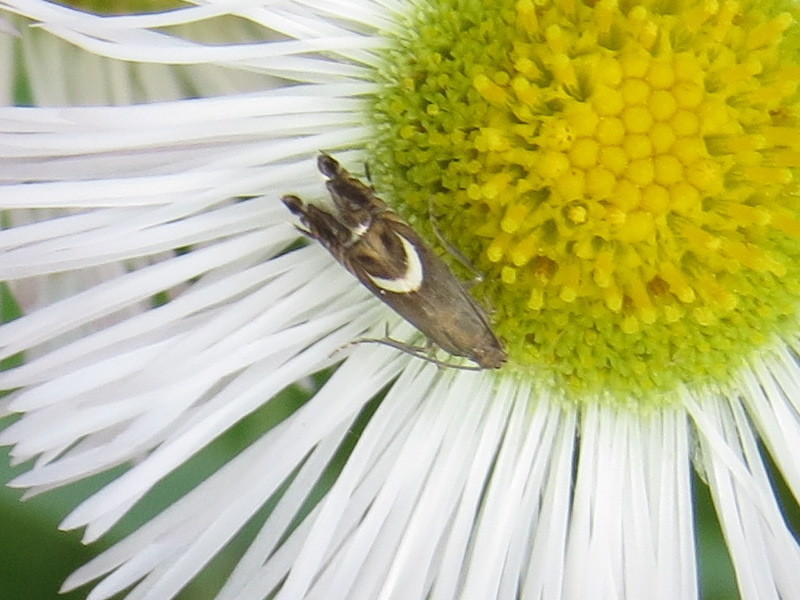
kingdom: Animalia
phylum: Arthropoda
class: Insecta
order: Lepidoptera
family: Glyphipterigidae
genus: Glyphipterix
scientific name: Glyphipterix Diploschizia impigritella
